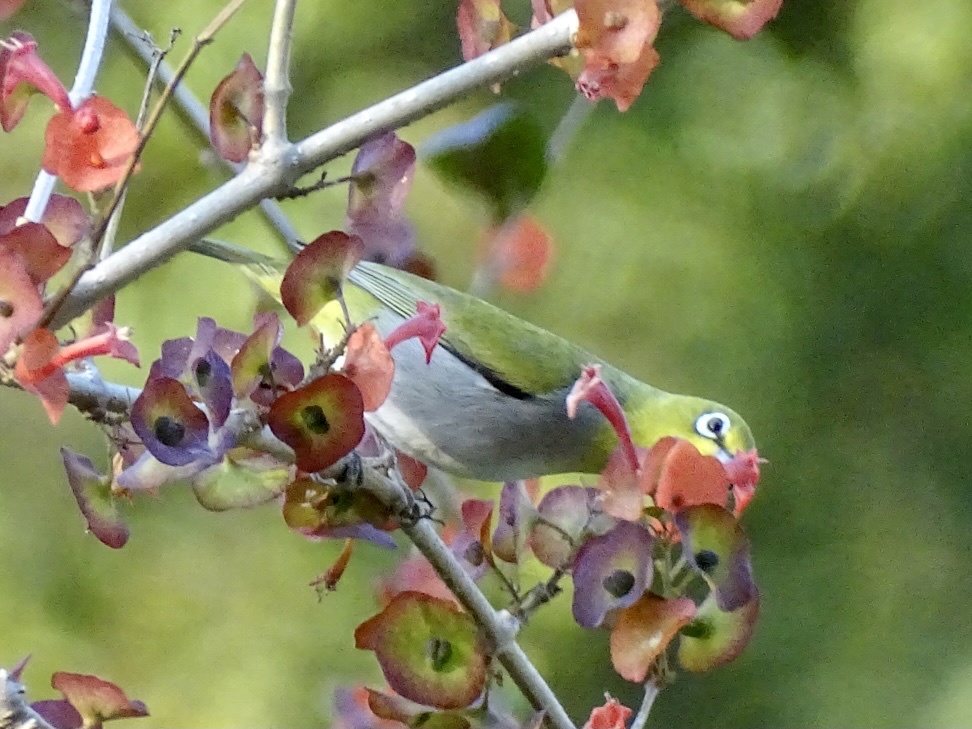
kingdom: Animalia
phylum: Chordata
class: Aves
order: Passeriformes
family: Zosteropidae
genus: Zosterops
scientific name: Zosterops simplex
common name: Swinhoe's white-eye
